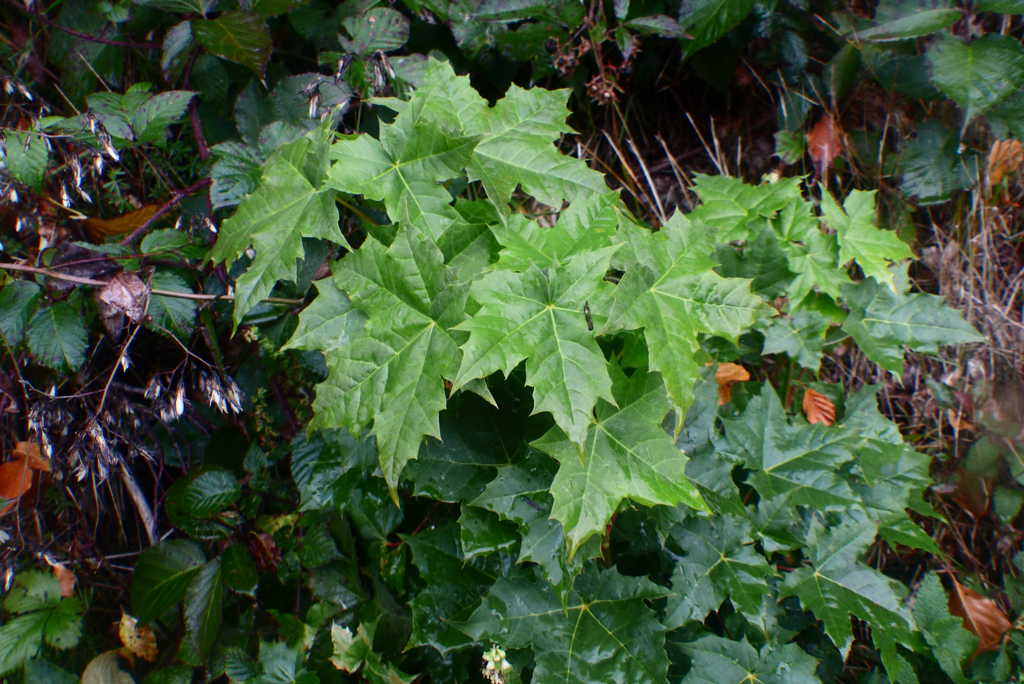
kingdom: Plantae
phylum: Tracheophyta
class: Magnoliopsida
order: Sapindales
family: Sapindaceae
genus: Acer
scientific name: Acer platanoides
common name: Norway maple
